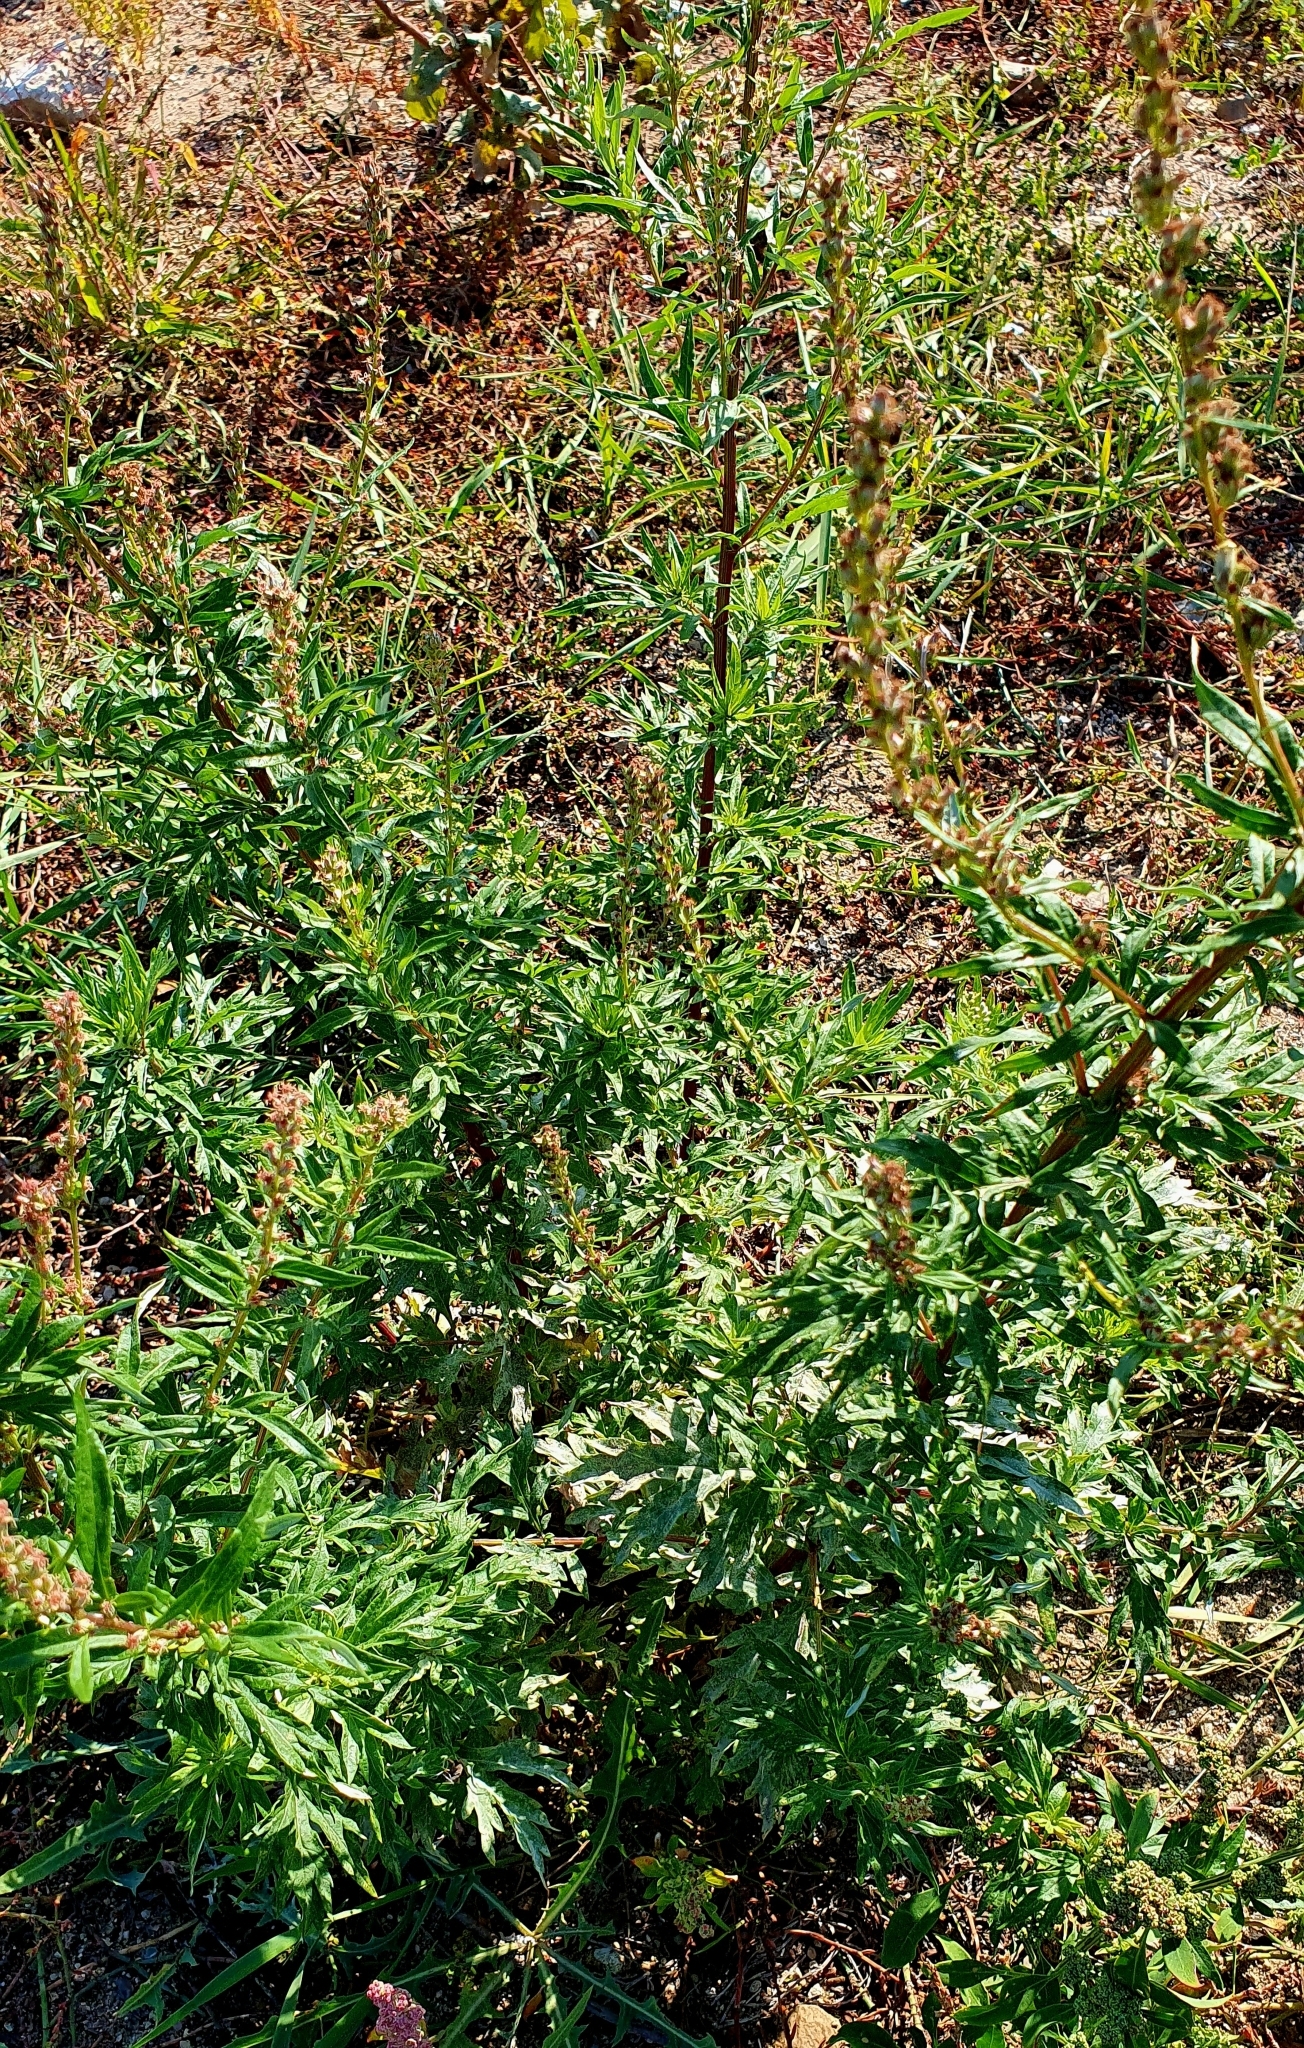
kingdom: Plantae
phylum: Tracheophyta
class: Magnoliopsida
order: Asterales
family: Asteraceae
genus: Artemisia
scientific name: Artemisia vulgaris
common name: Mugwort
